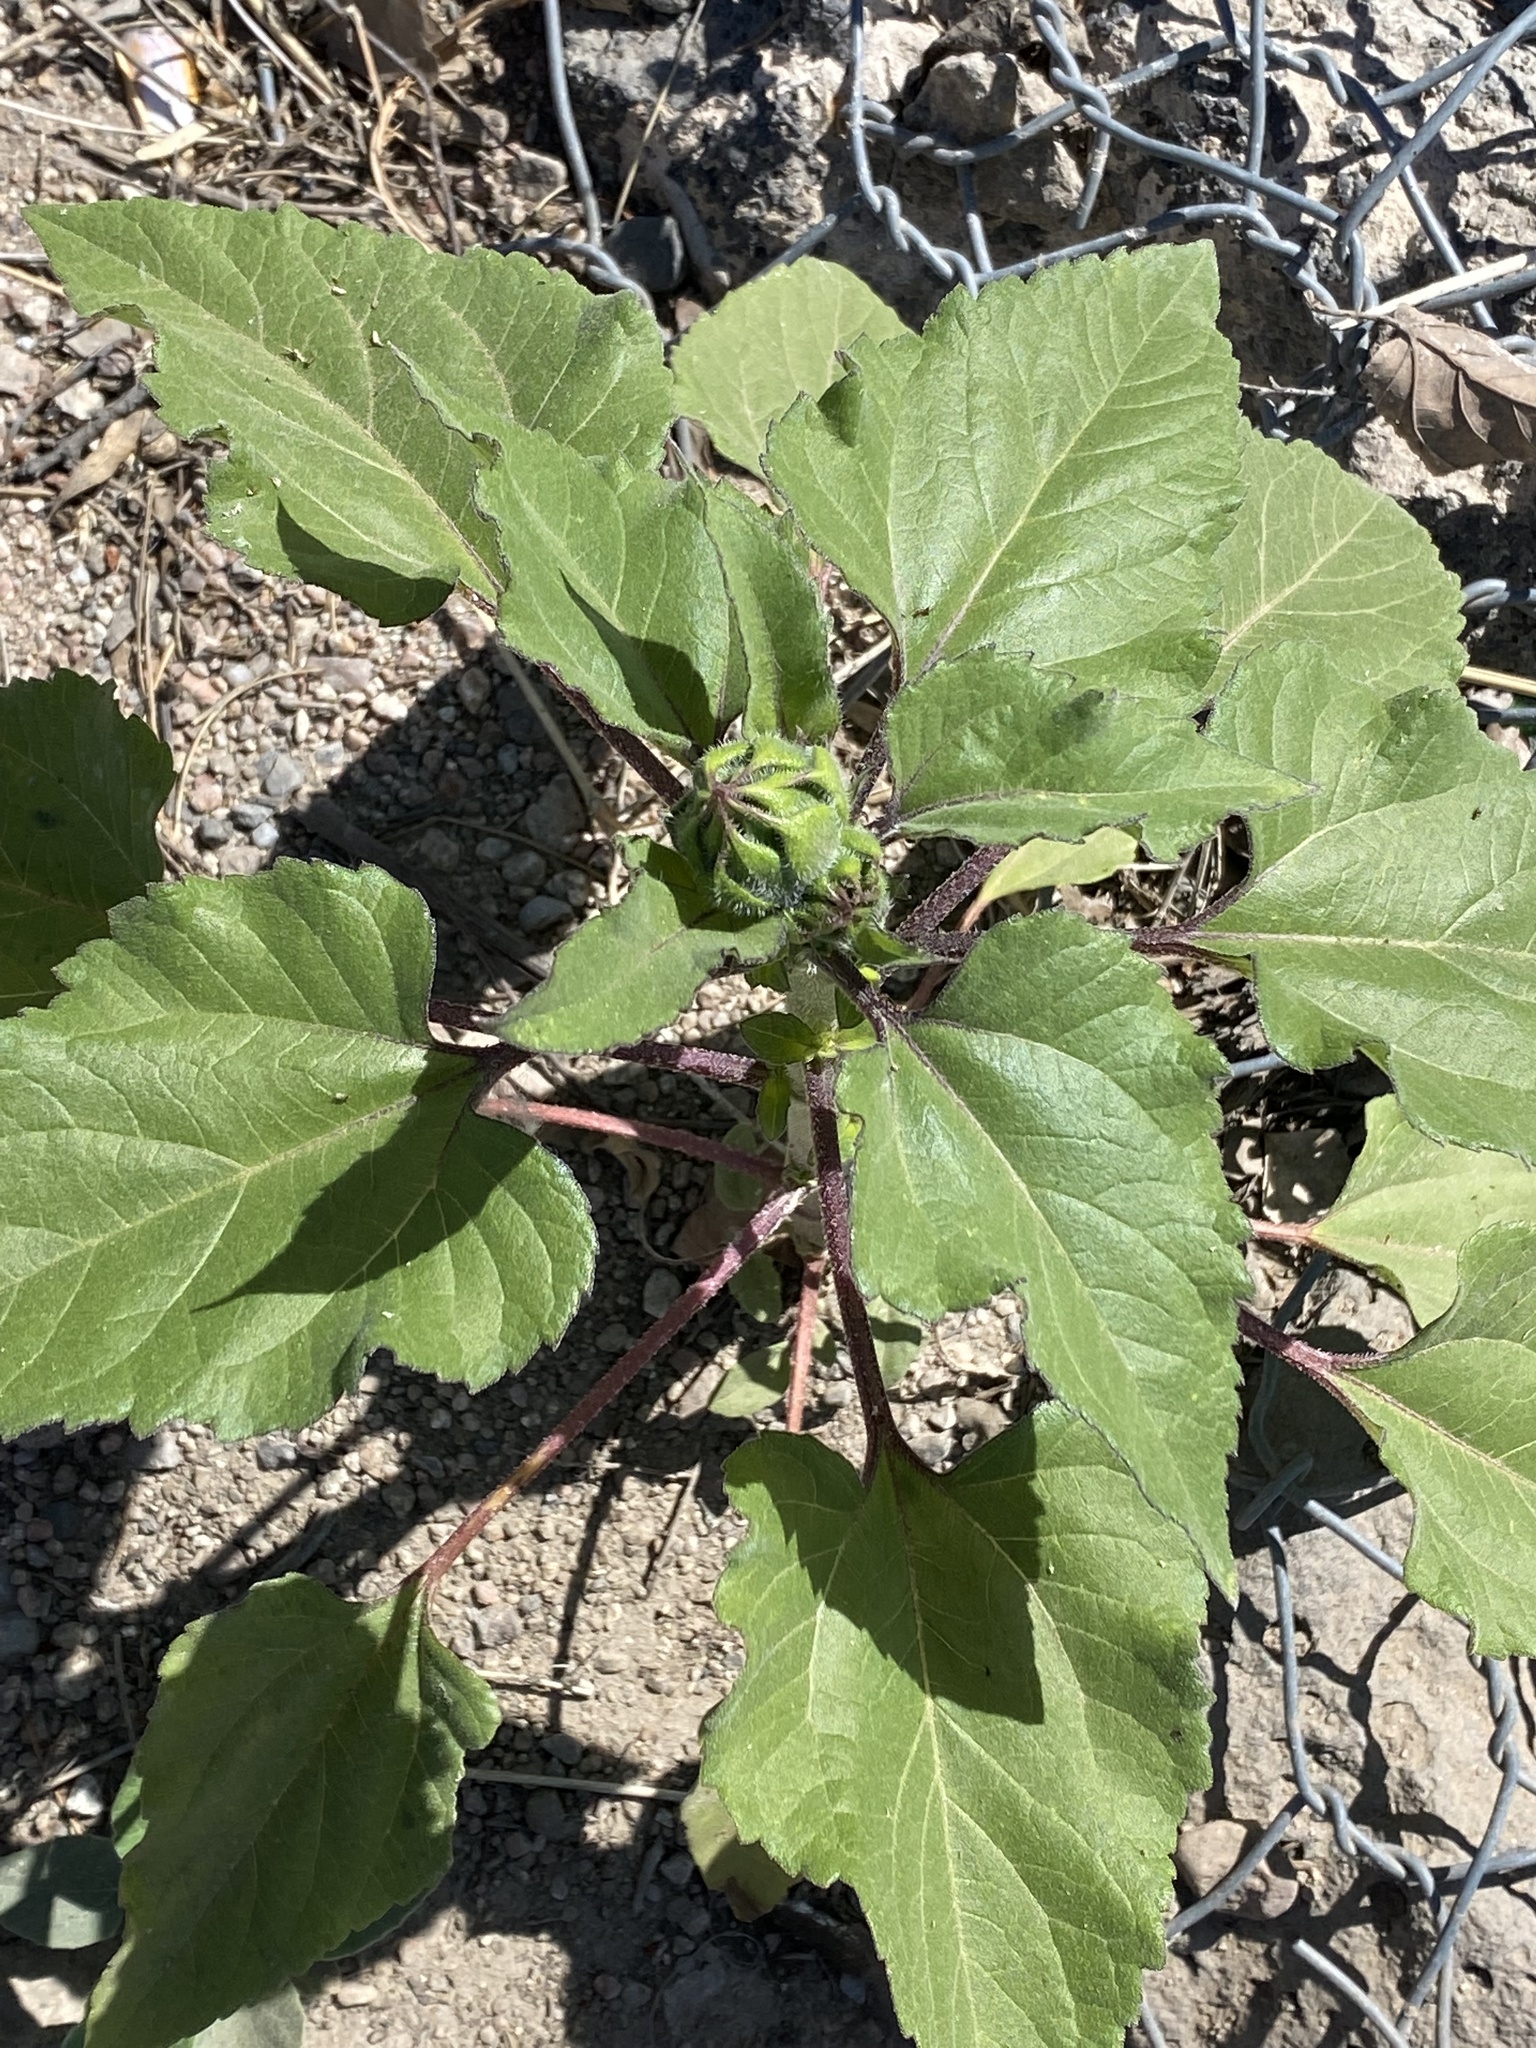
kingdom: Plantae
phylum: Tracheophyta
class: Magnoliopsida
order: Asterales
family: Asteraceae
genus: Helianthus
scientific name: Helianthus annuus
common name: Sunflower
